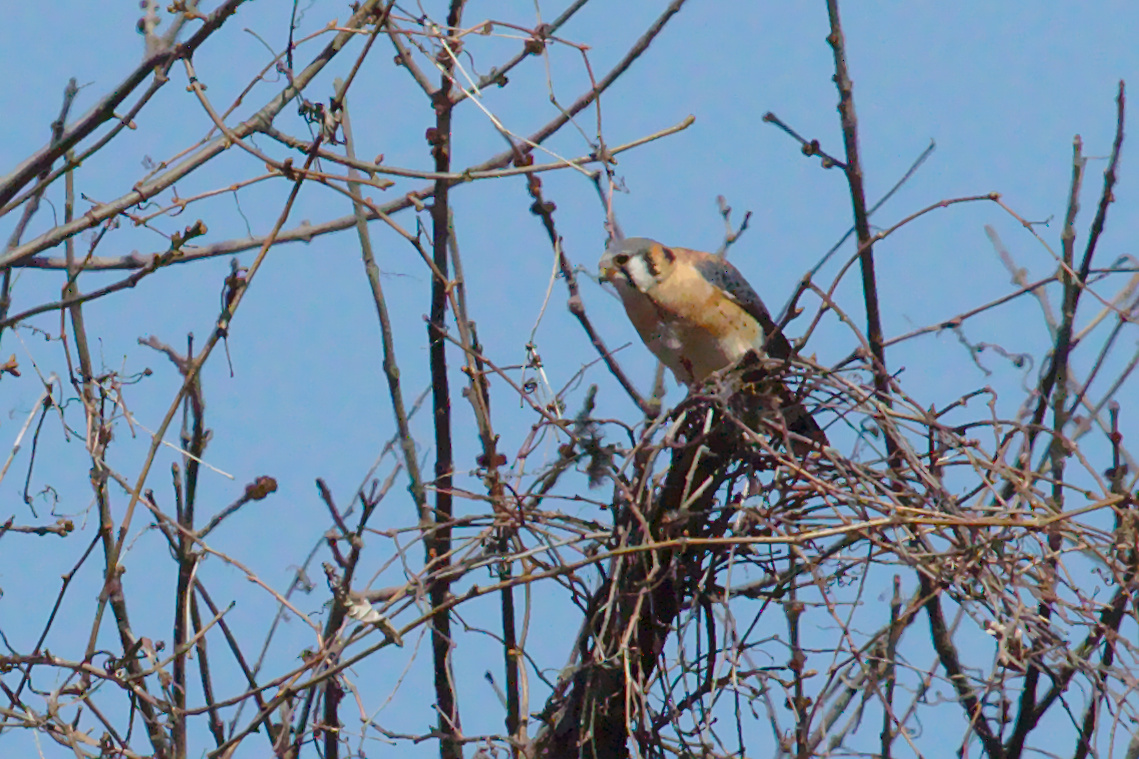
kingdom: Animalia
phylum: Chordata
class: Aves
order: Falconiformes
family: Falconidae
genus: Falco
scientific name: Falco sparverius
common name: American kestrel
